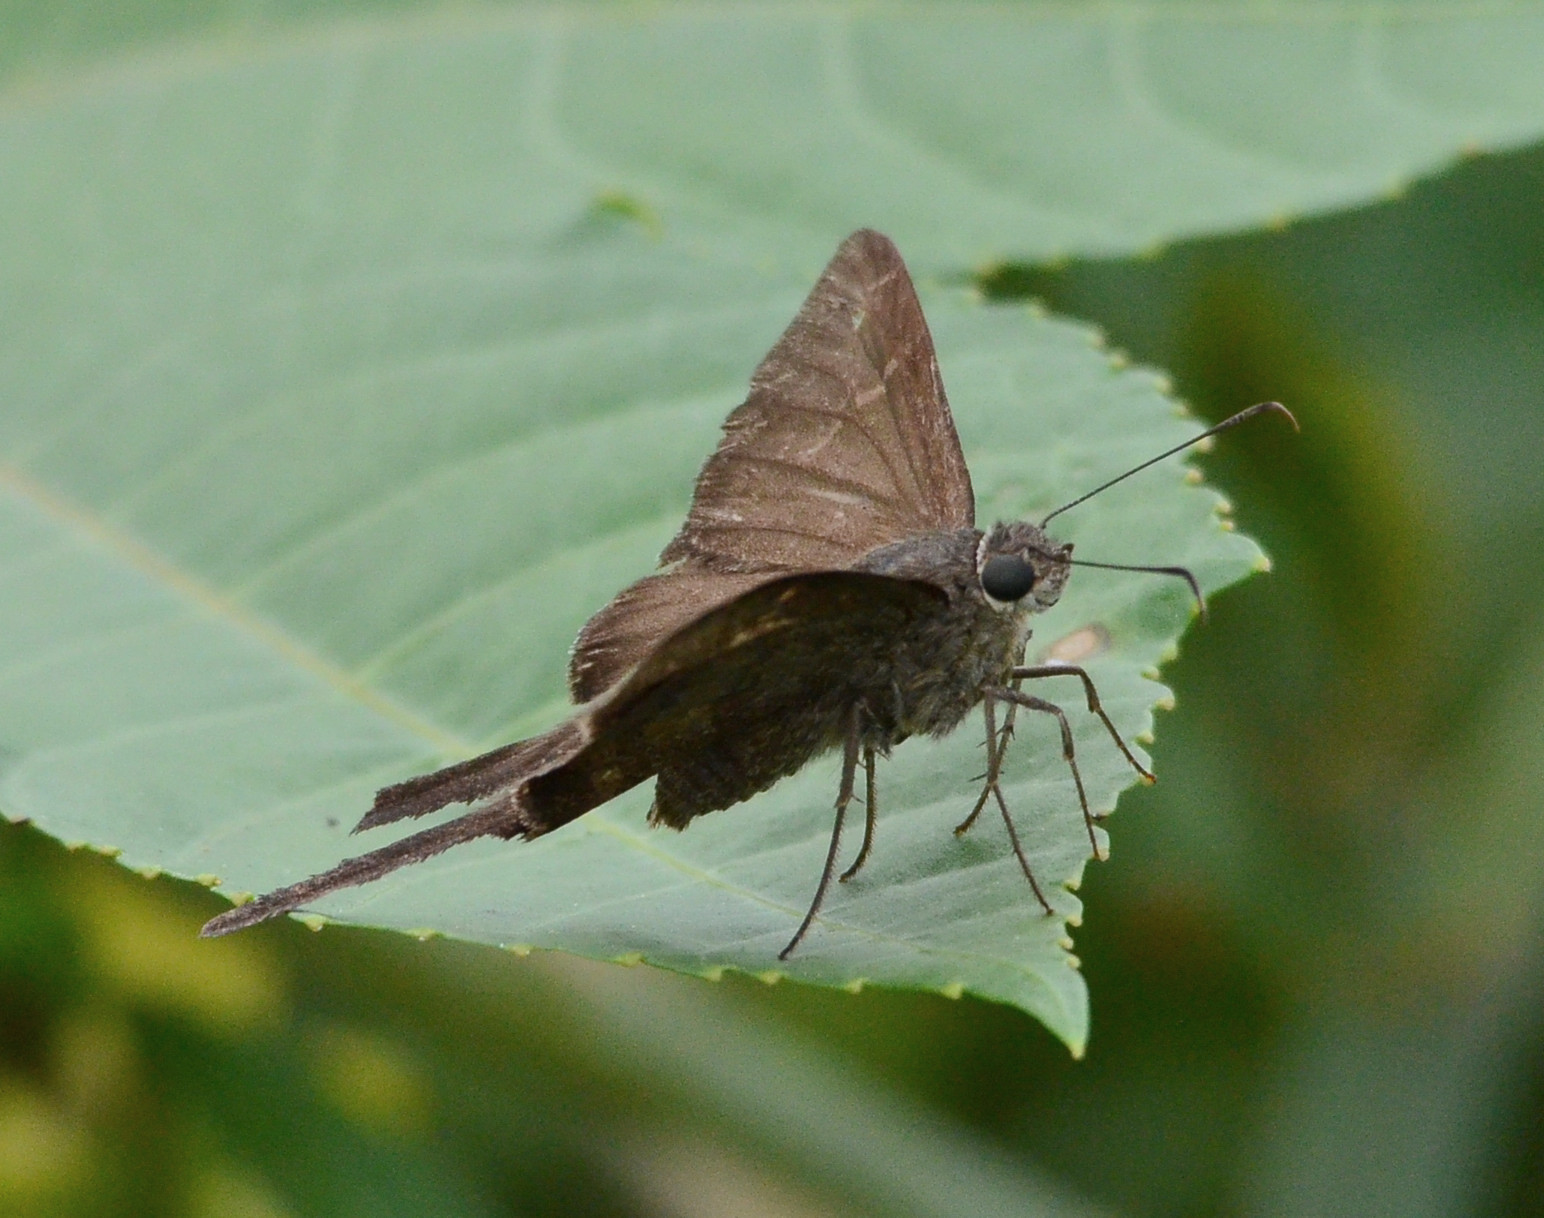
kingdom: Animalia
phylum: Arthropoda
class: Insecta
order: Lepidoptera
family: Hesperiidae
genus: Urbanus
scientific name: Urbanus procne
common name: Brown longtail
